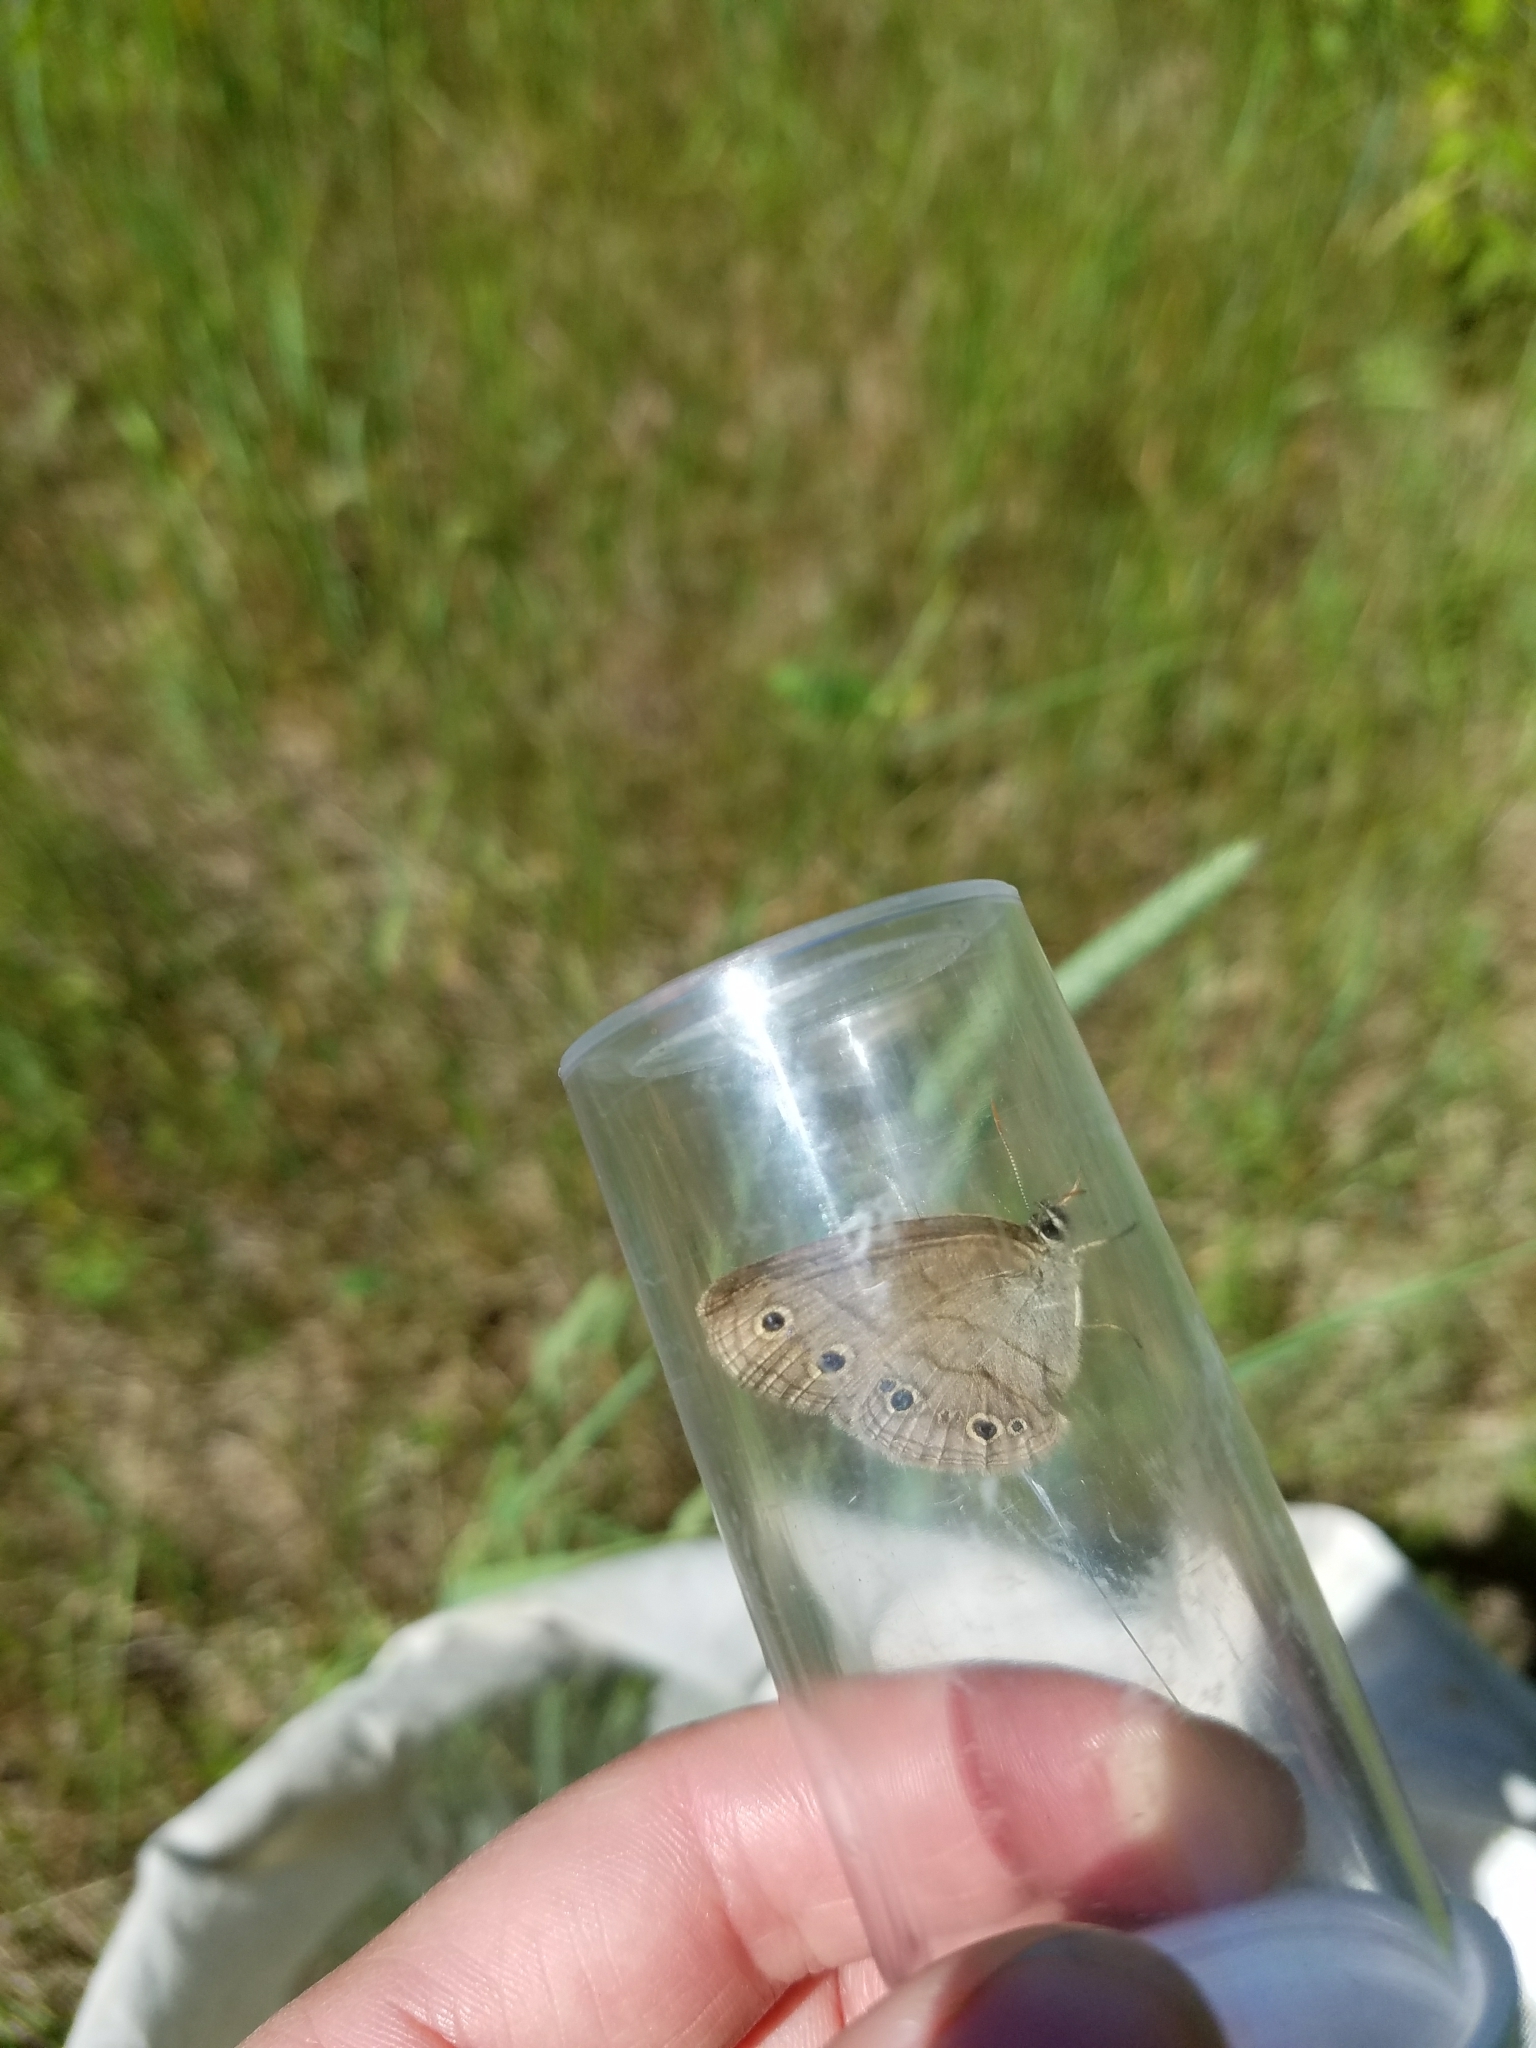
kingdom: Animalia
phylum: Arthropoda
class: Insecta
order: Lepidoptera
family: Nymphalidae
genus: Euptychia
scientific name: Euptychia cymela
